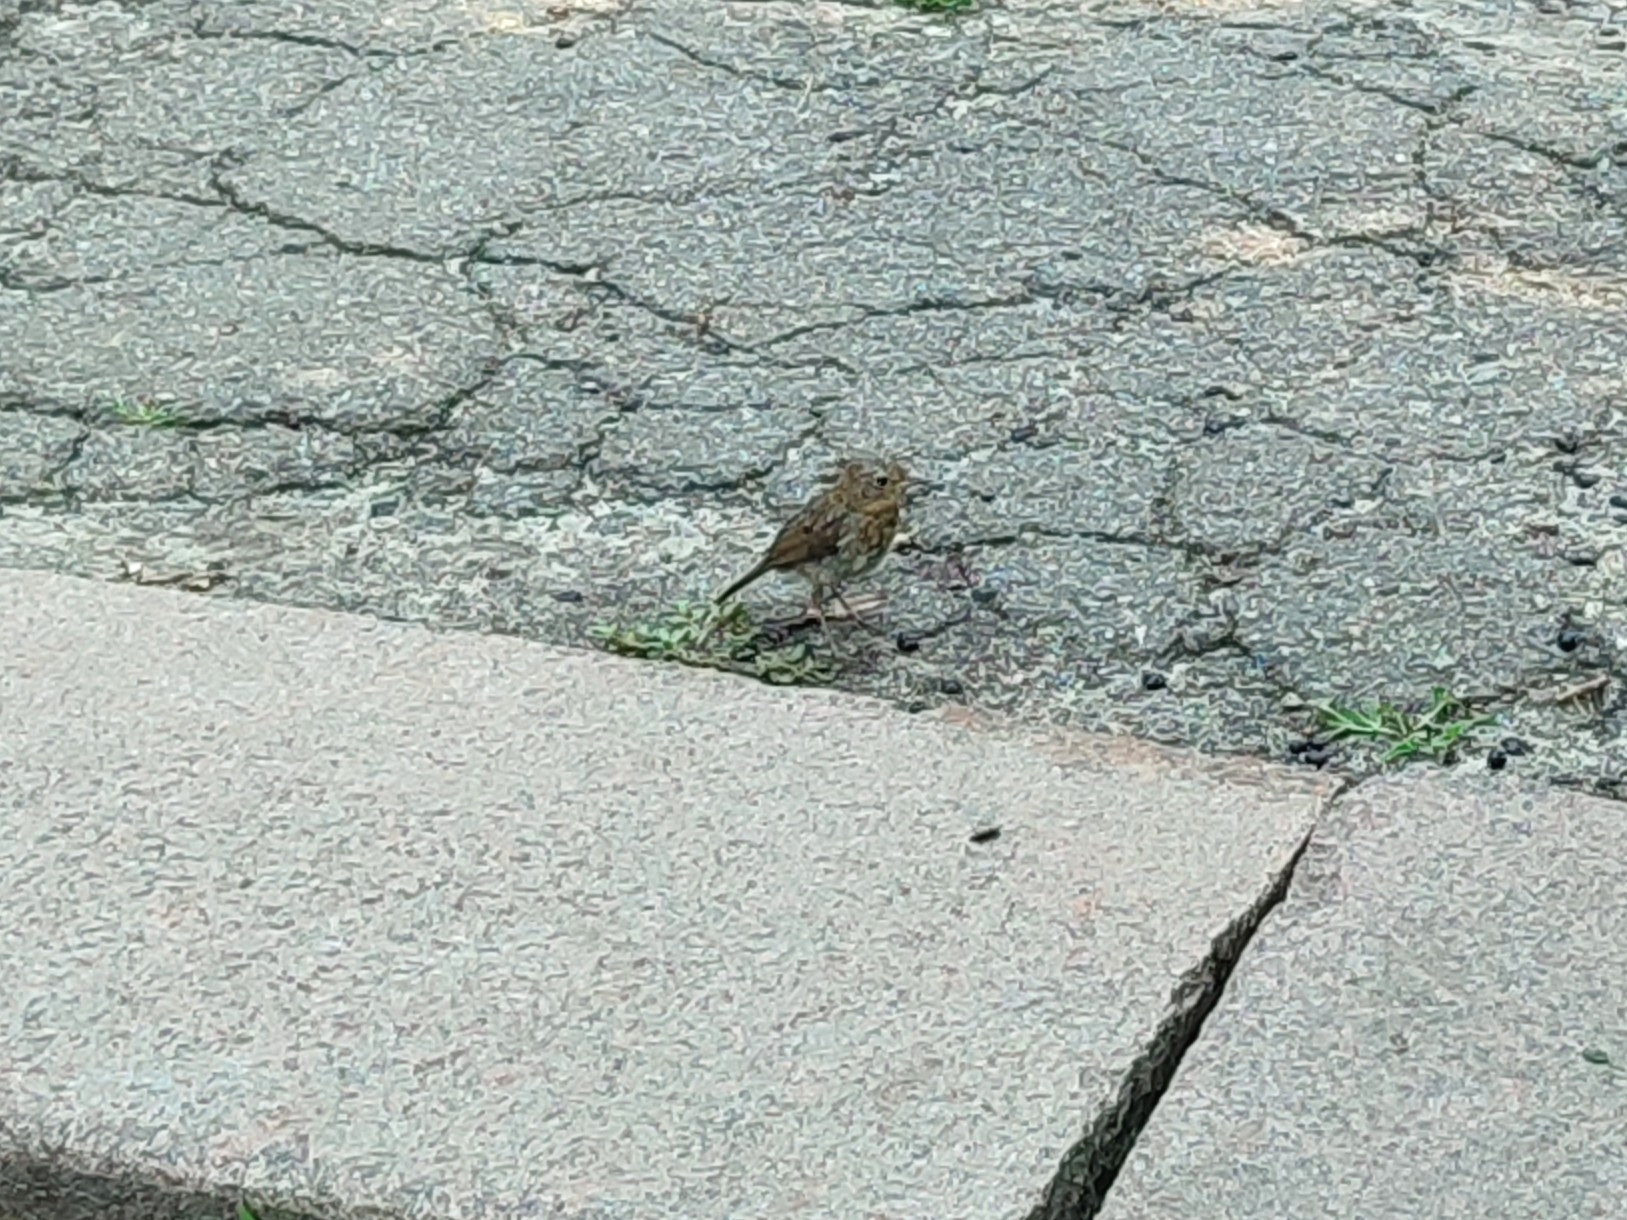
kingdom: Animalia
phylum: Chordata
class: Aves
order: Passeriformes
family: Muscicapidae
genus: Erithacus
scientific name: Erithacus rubecula
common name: European robin
